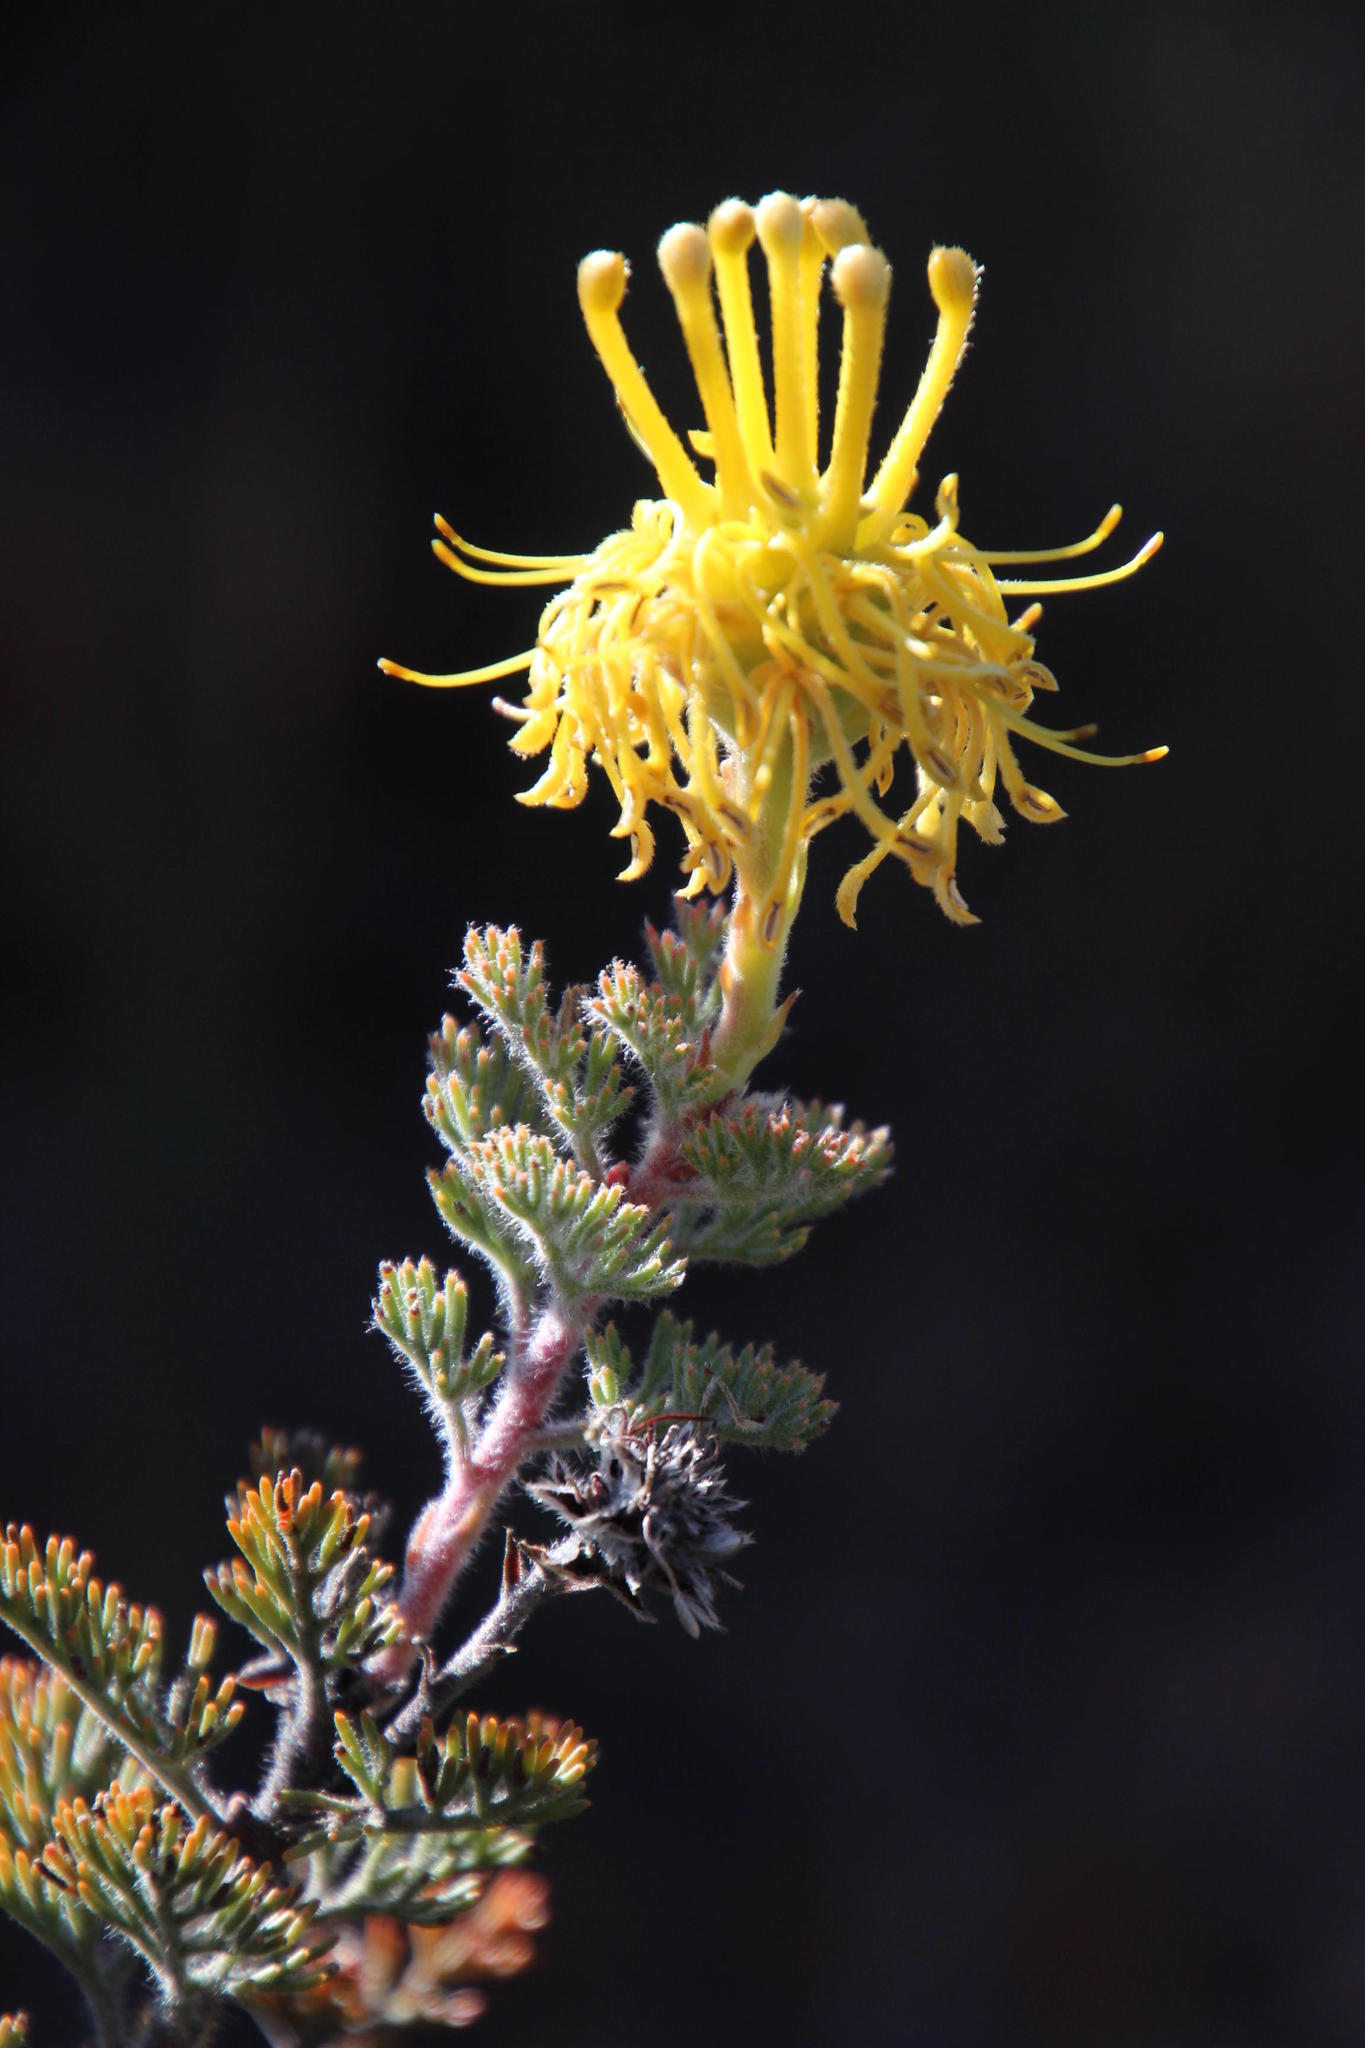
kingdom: Plantae
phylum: Tracheophyta
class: Magnoliopsida
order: Proteales
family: Proteaceae
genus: Serruria
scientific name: Serruria flava
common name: Spiderhead
